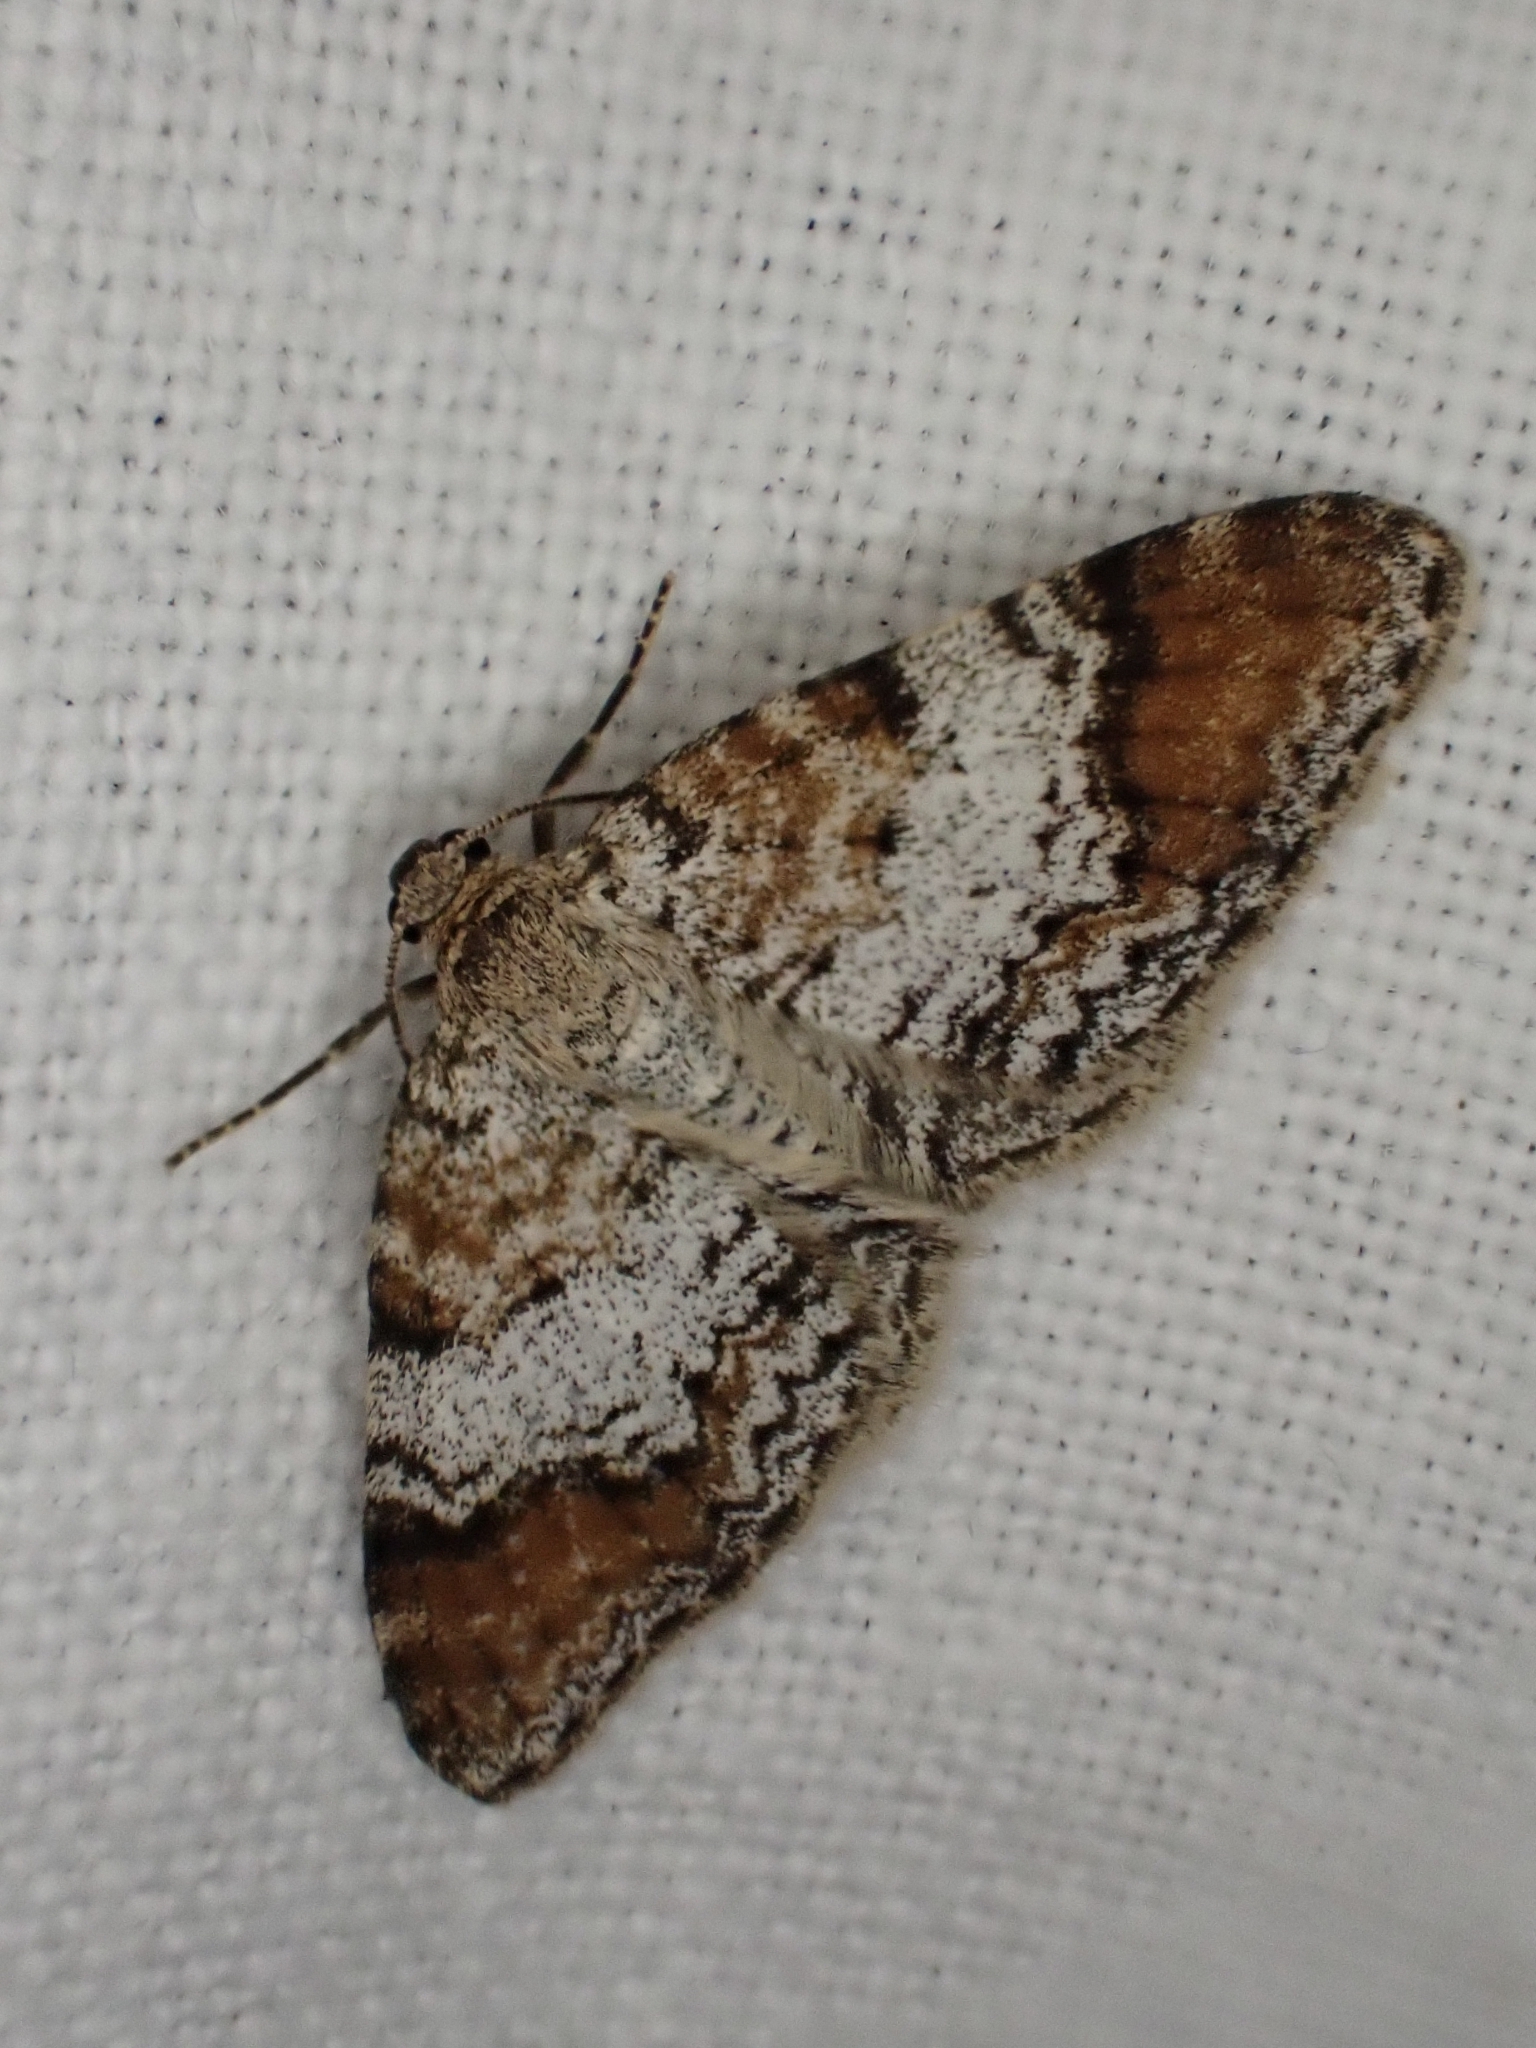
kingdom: Animalia
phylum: Arthropoda
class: Insecta
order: Lepidoptera
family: Geometridae
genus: Venusia
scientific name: Venusia blomeri
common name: Blomer's rivulet
